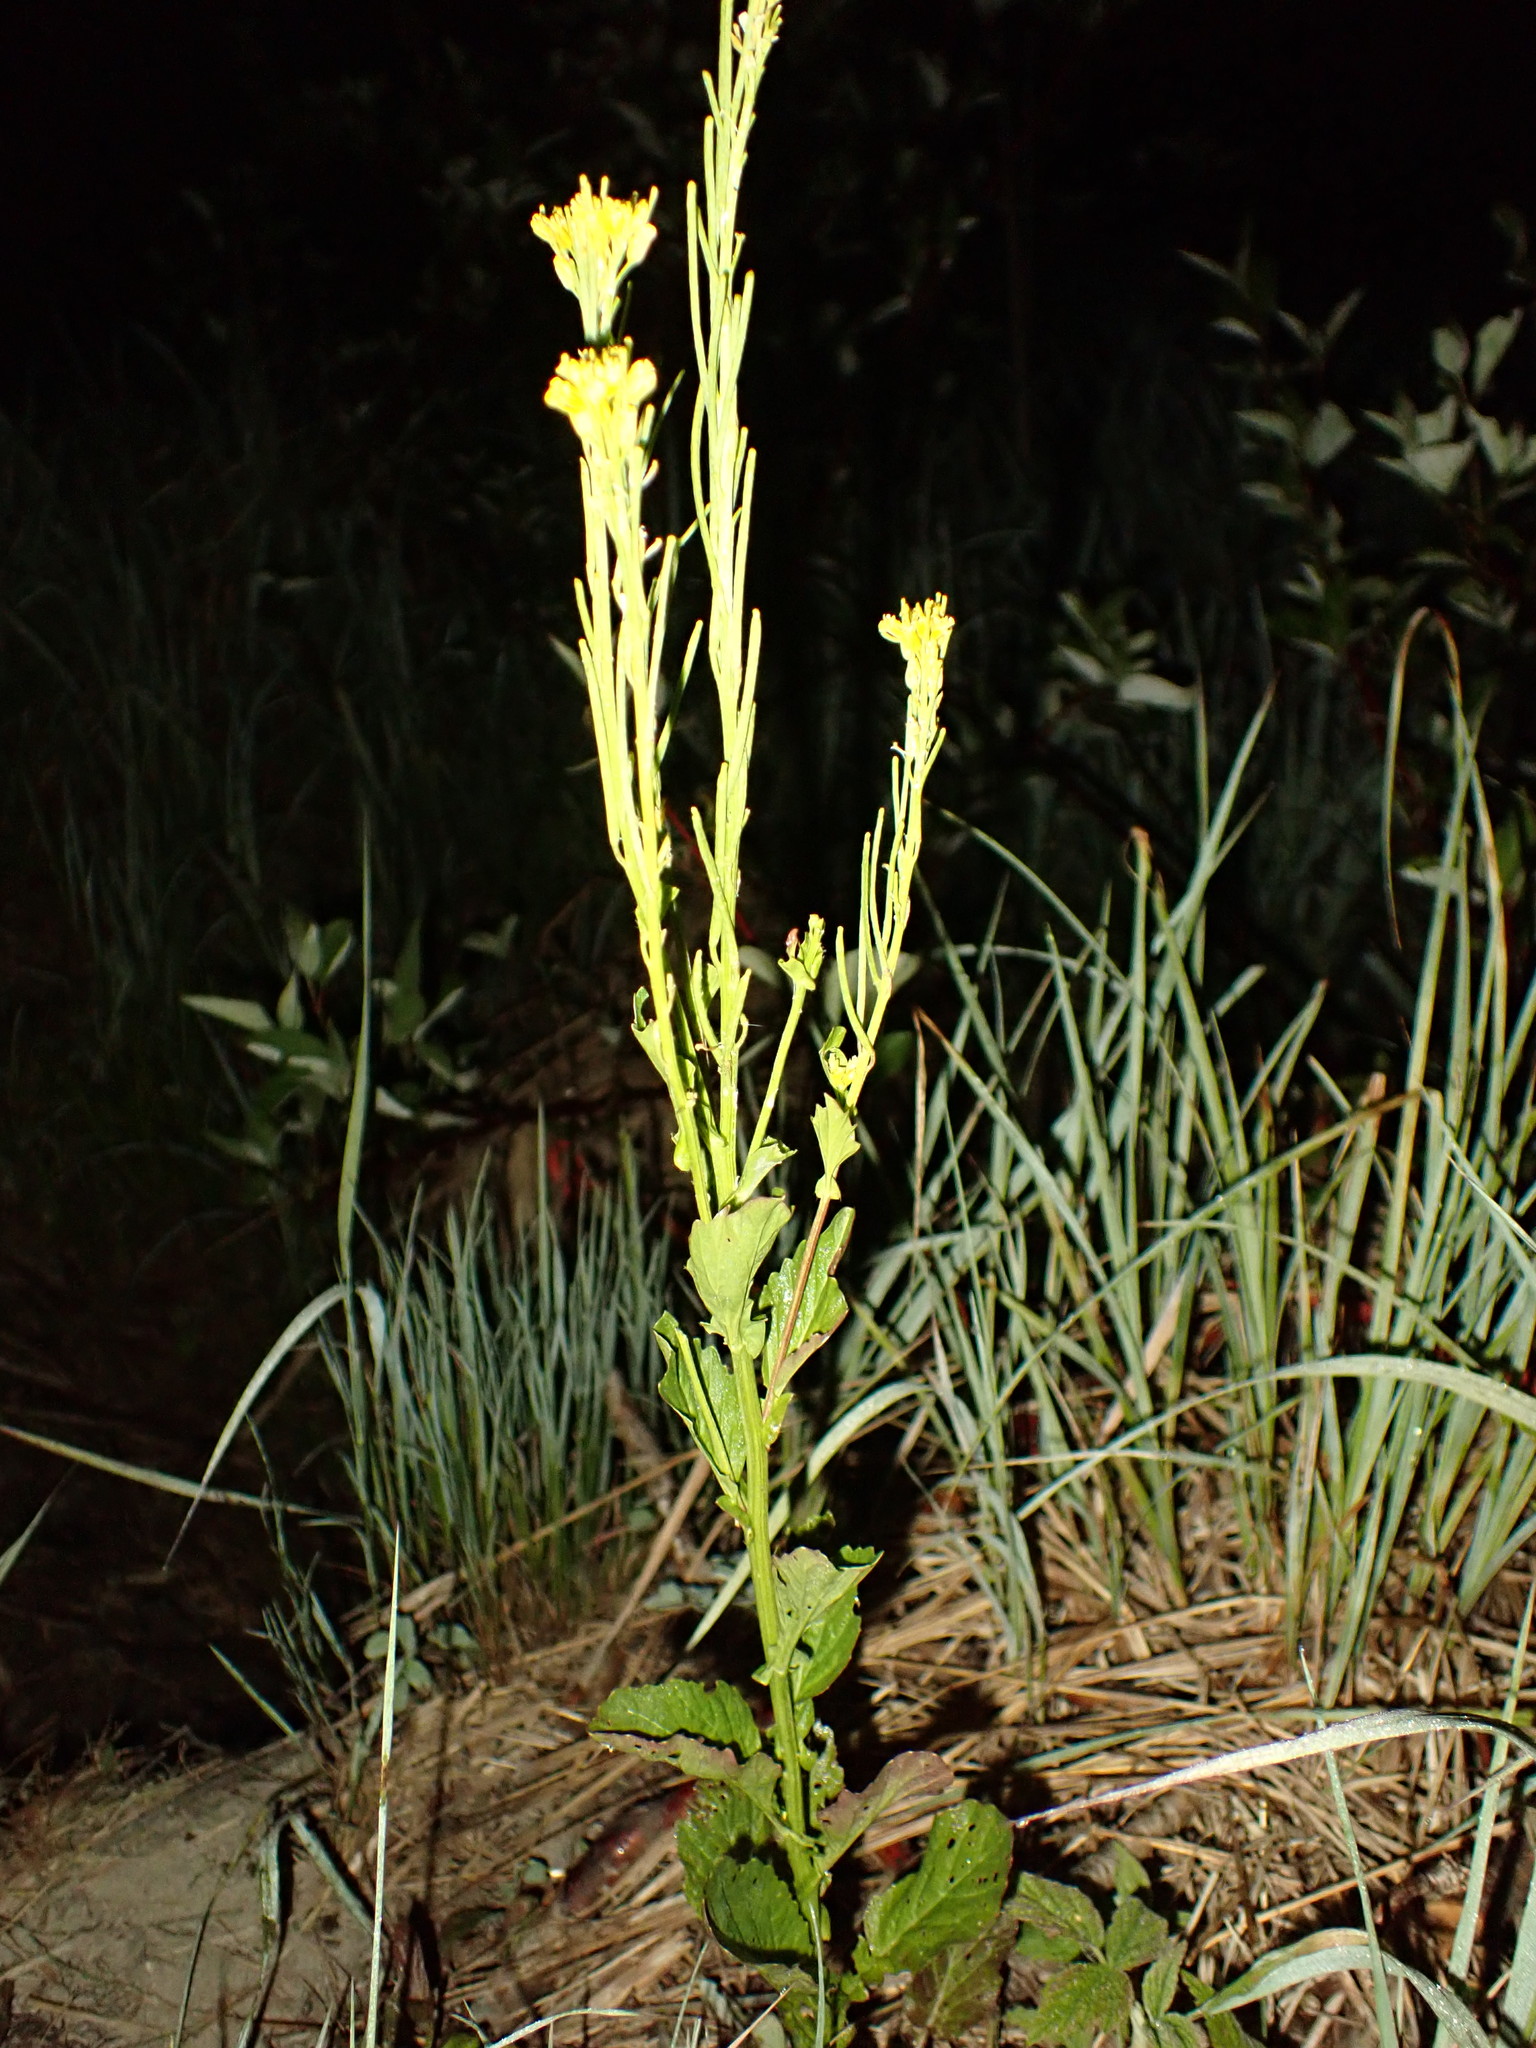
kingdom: Plantae
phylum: Tracheophyta
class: Magnoliopsida
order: Brassicales
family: Brassicaceae
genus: Barbarea
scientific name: Barbarea stricta
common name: Small-flowered winter-cress
